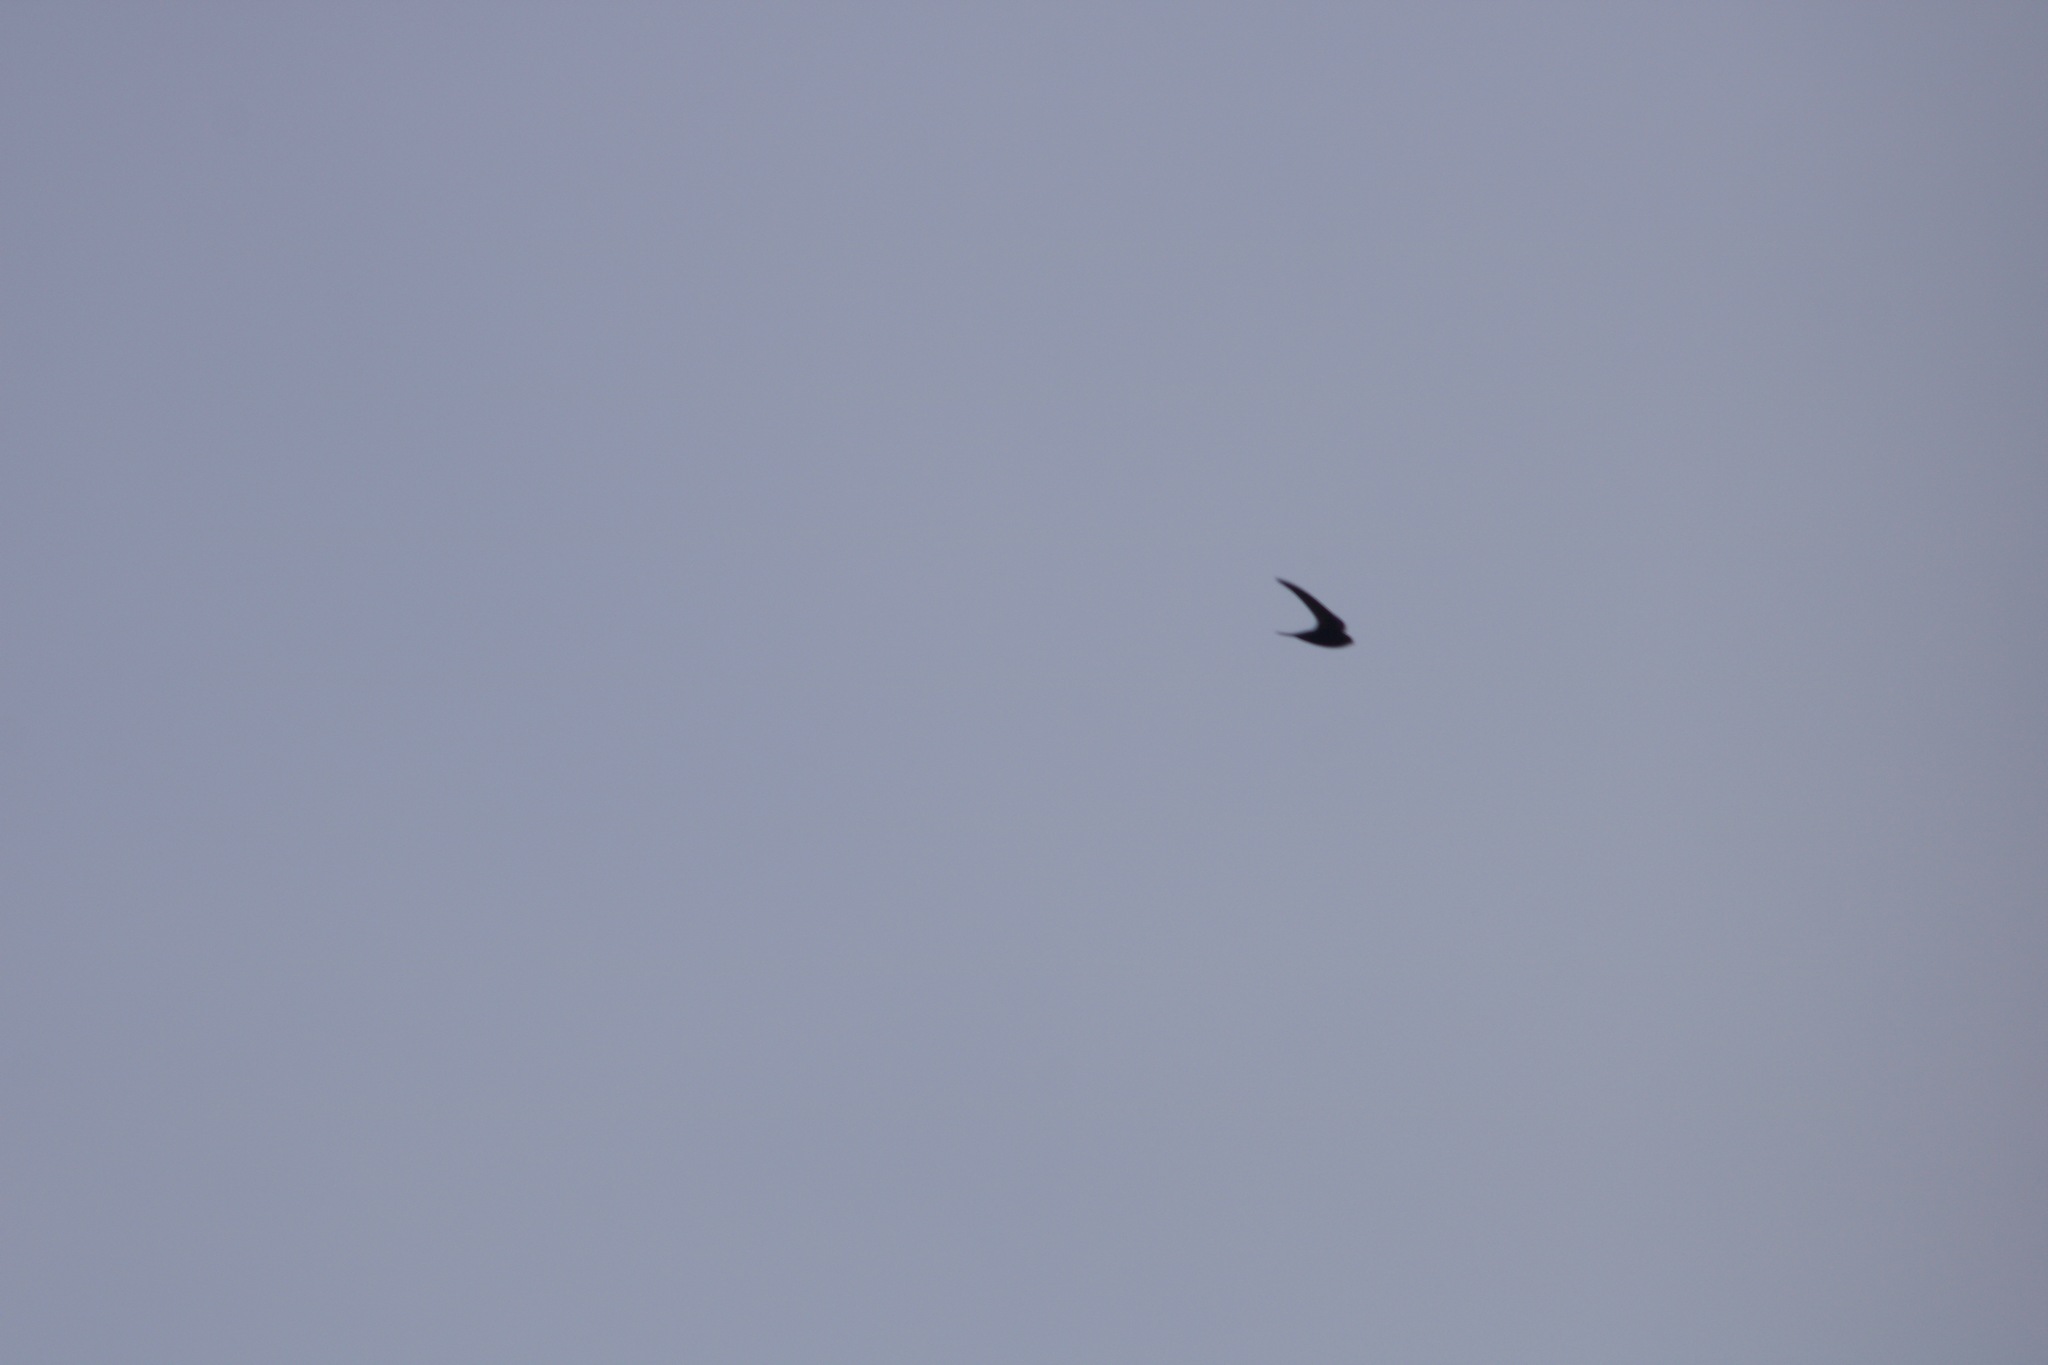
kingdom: Animalia
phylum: Chordata
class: Aves
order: Apodiformes
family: Apodidae
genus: Apus
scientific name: Apus apus
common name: Common swift
